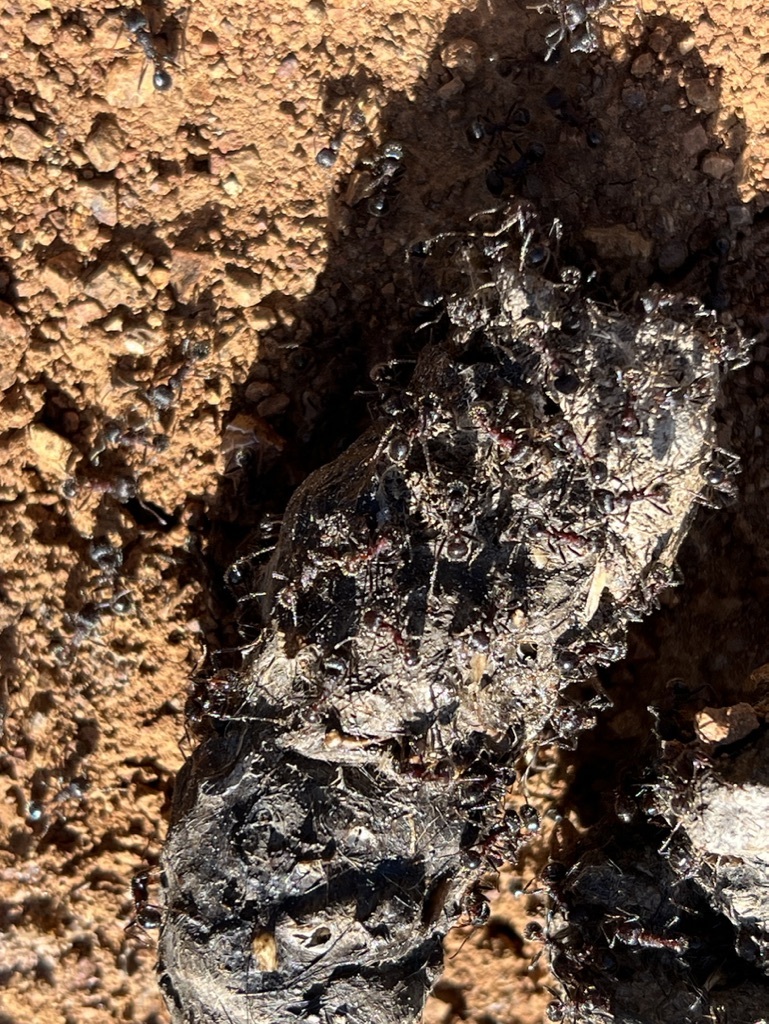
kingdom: Animalia
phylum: Arthropoda
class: Insecta
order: Hymenoptera
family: Formicidae
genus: Veromessor
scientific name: Veromessor andrei
